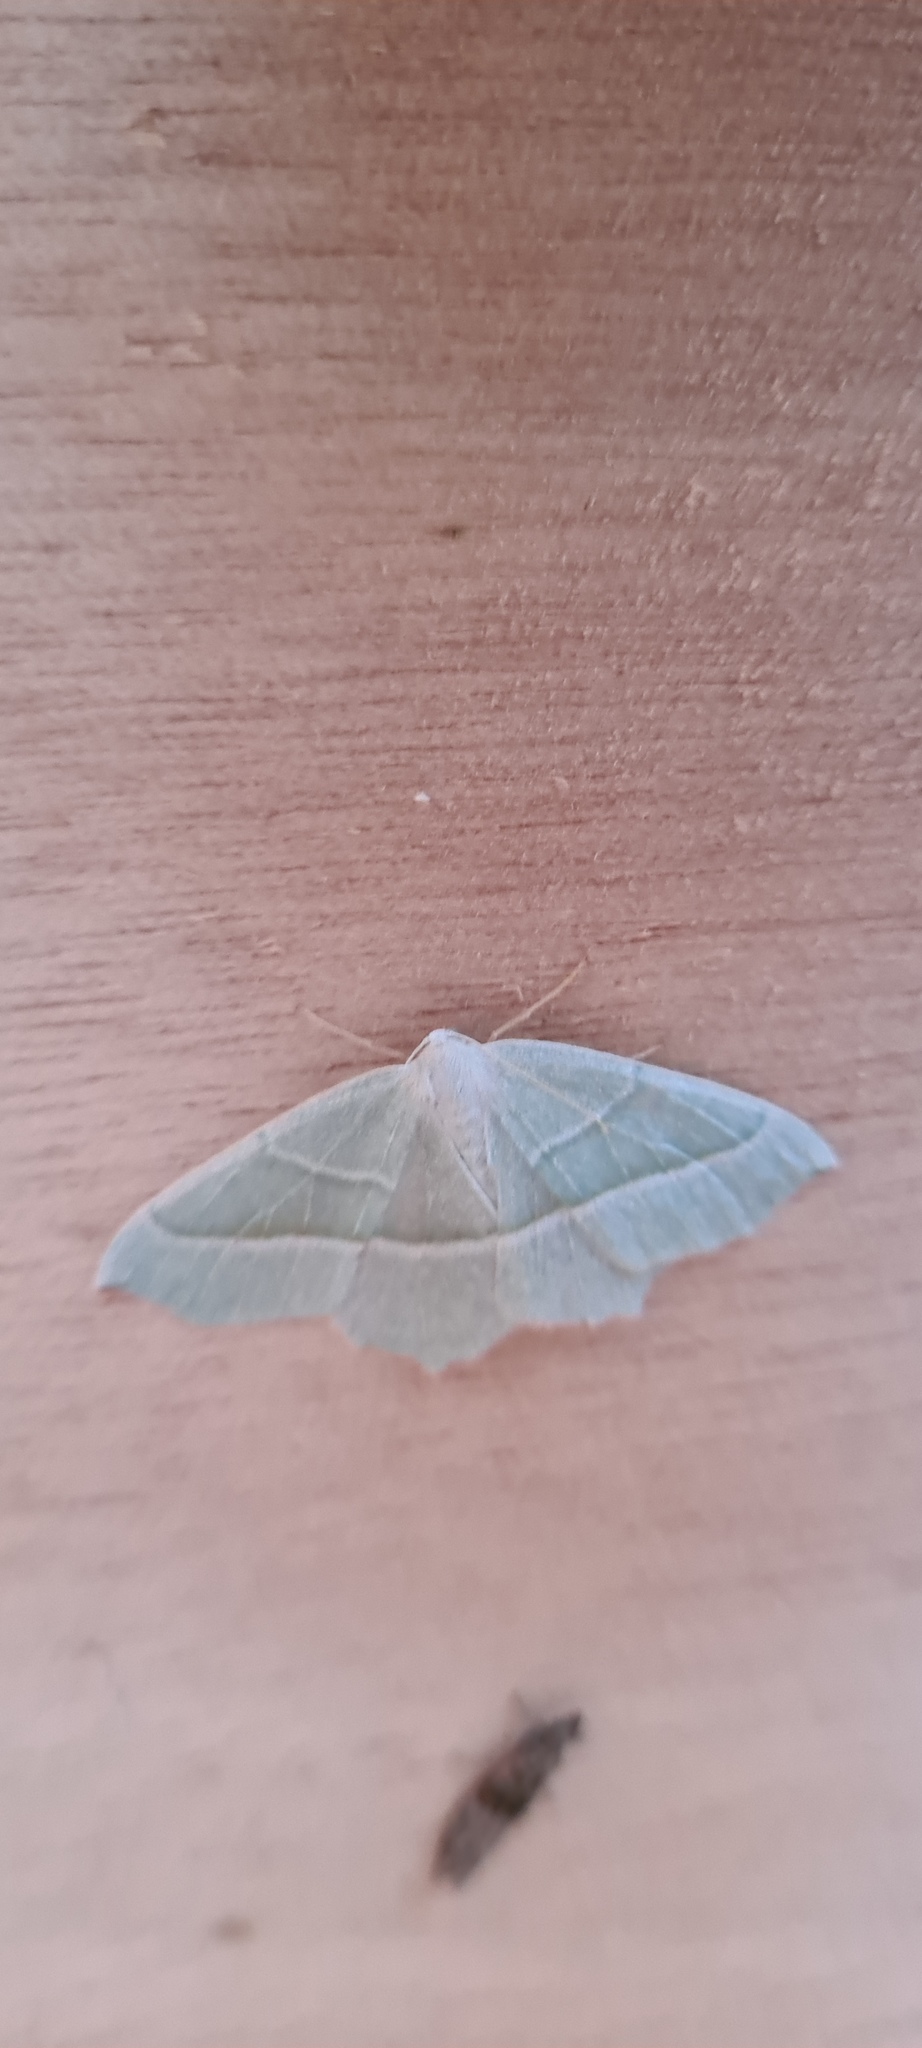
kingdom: Animalia
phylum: Arthropoda
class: Insecta
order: Lepidoptera
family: Geometridae
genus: Campaea
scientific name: Campaea margaritaria
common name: Light emerald
